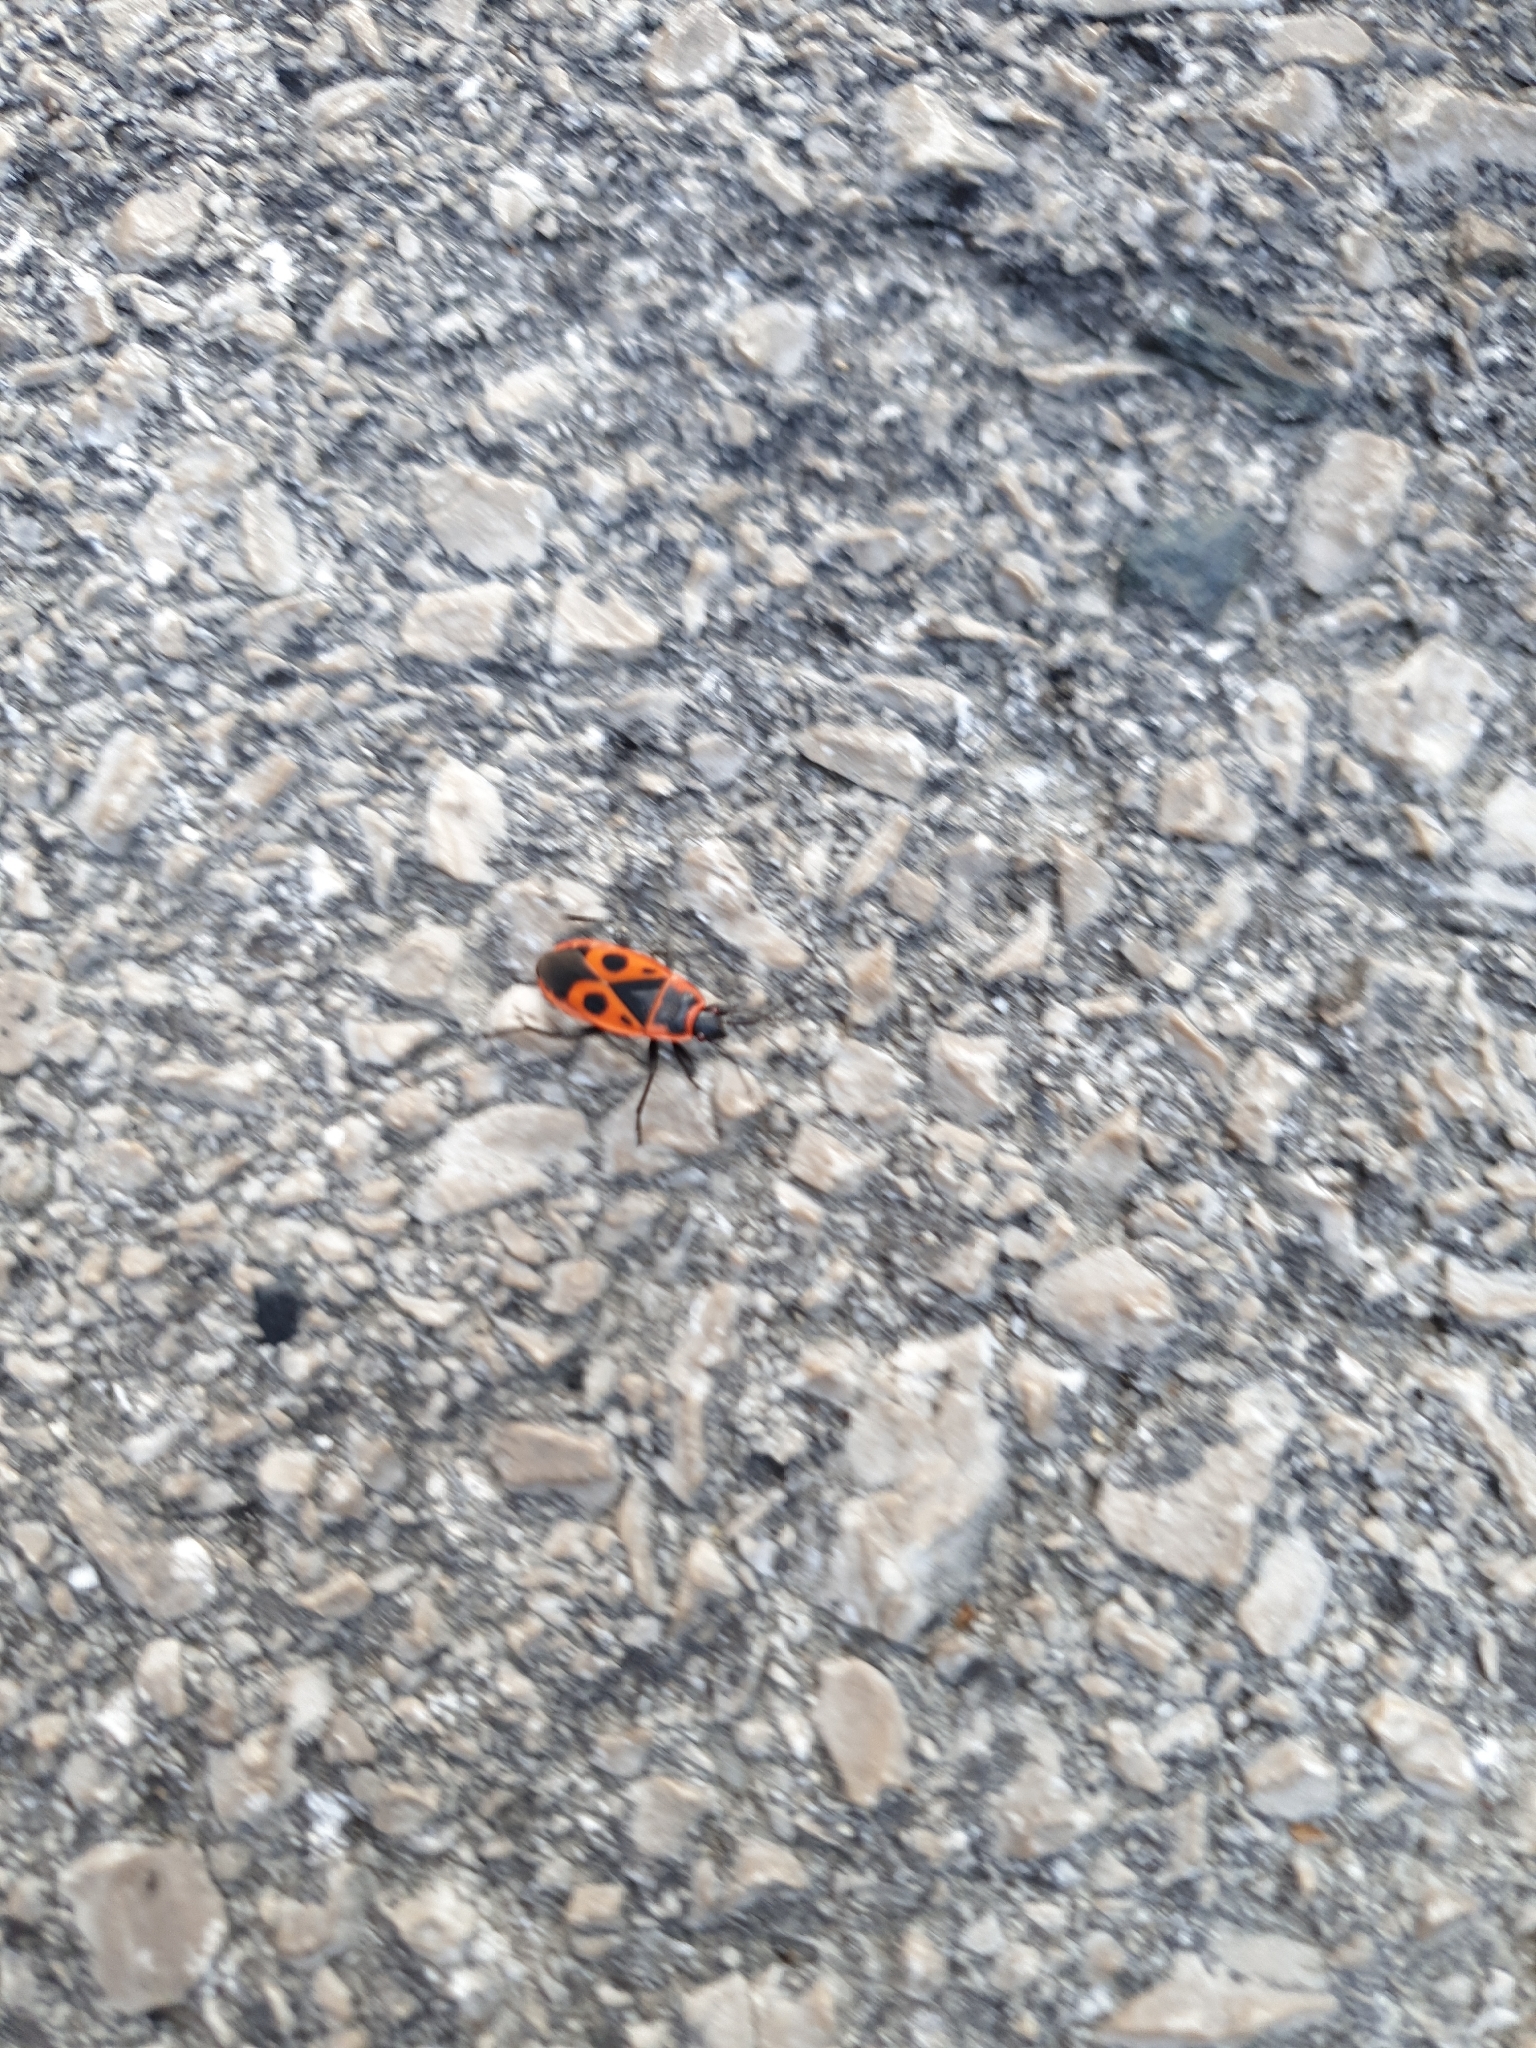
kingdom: Animalia
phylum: Arthropoda
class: Insecta
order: Hemiptera
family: Pyrrhocoridae
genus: Pyrrhocoris
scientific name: Pyrrhocoris apterus
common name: Firebug
